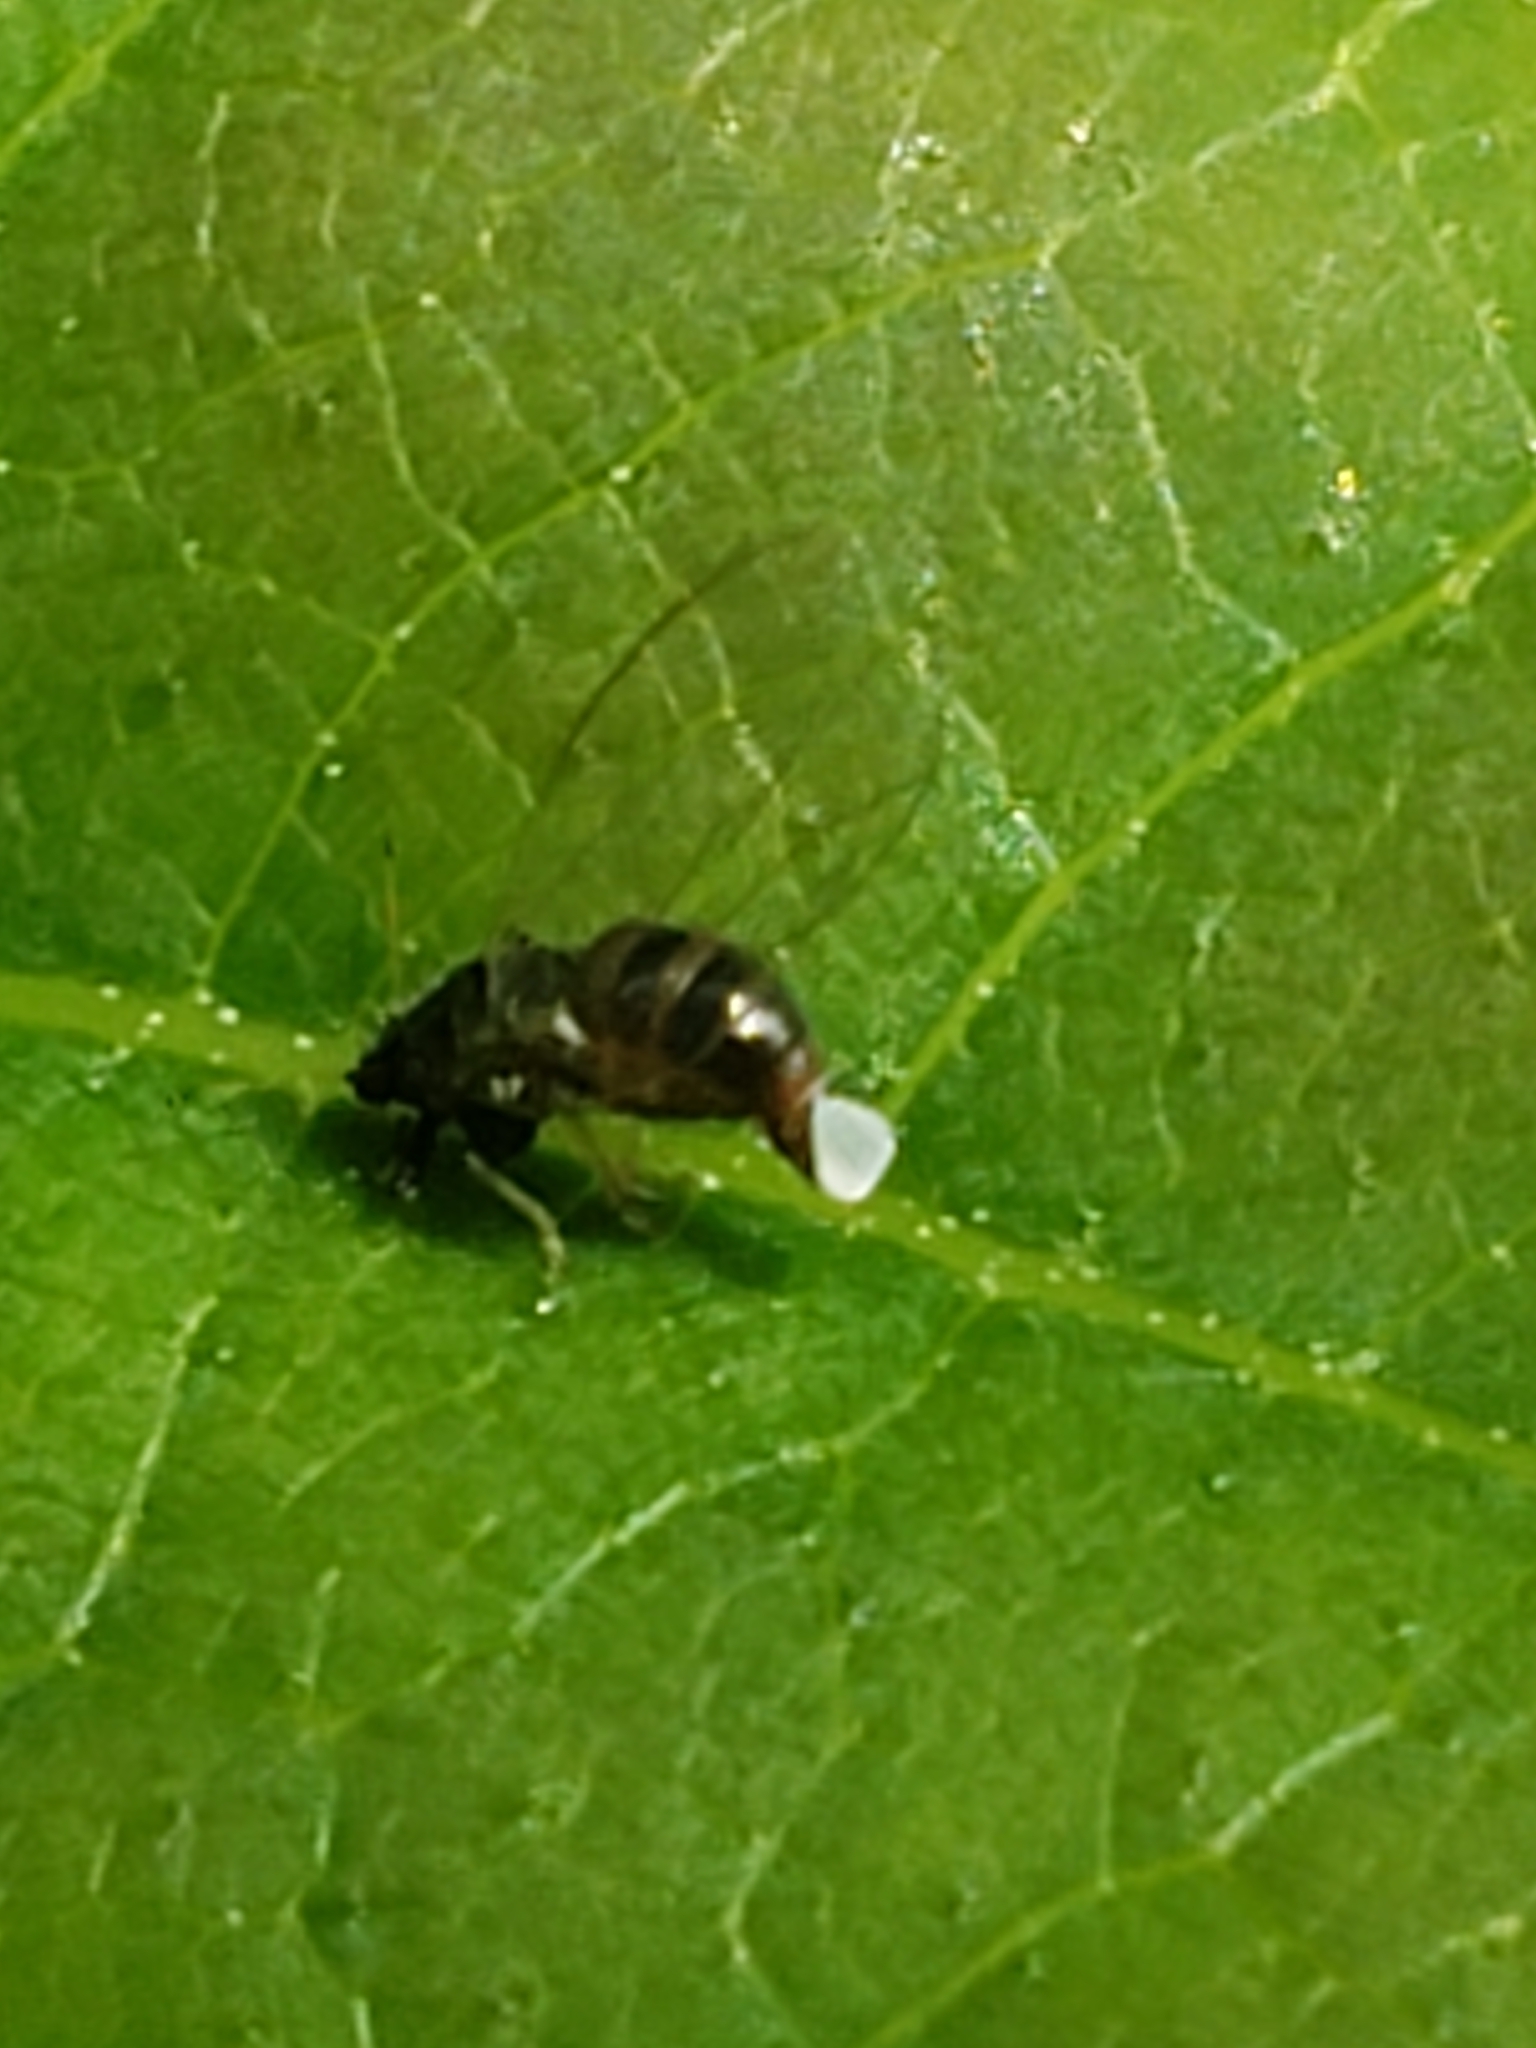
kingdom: Animalia
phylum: Arthropoda
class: Insecta
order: Hemiptera
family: Triozidae
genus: Baeoalitriozus
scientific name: Baeoalitriozus diospyri
